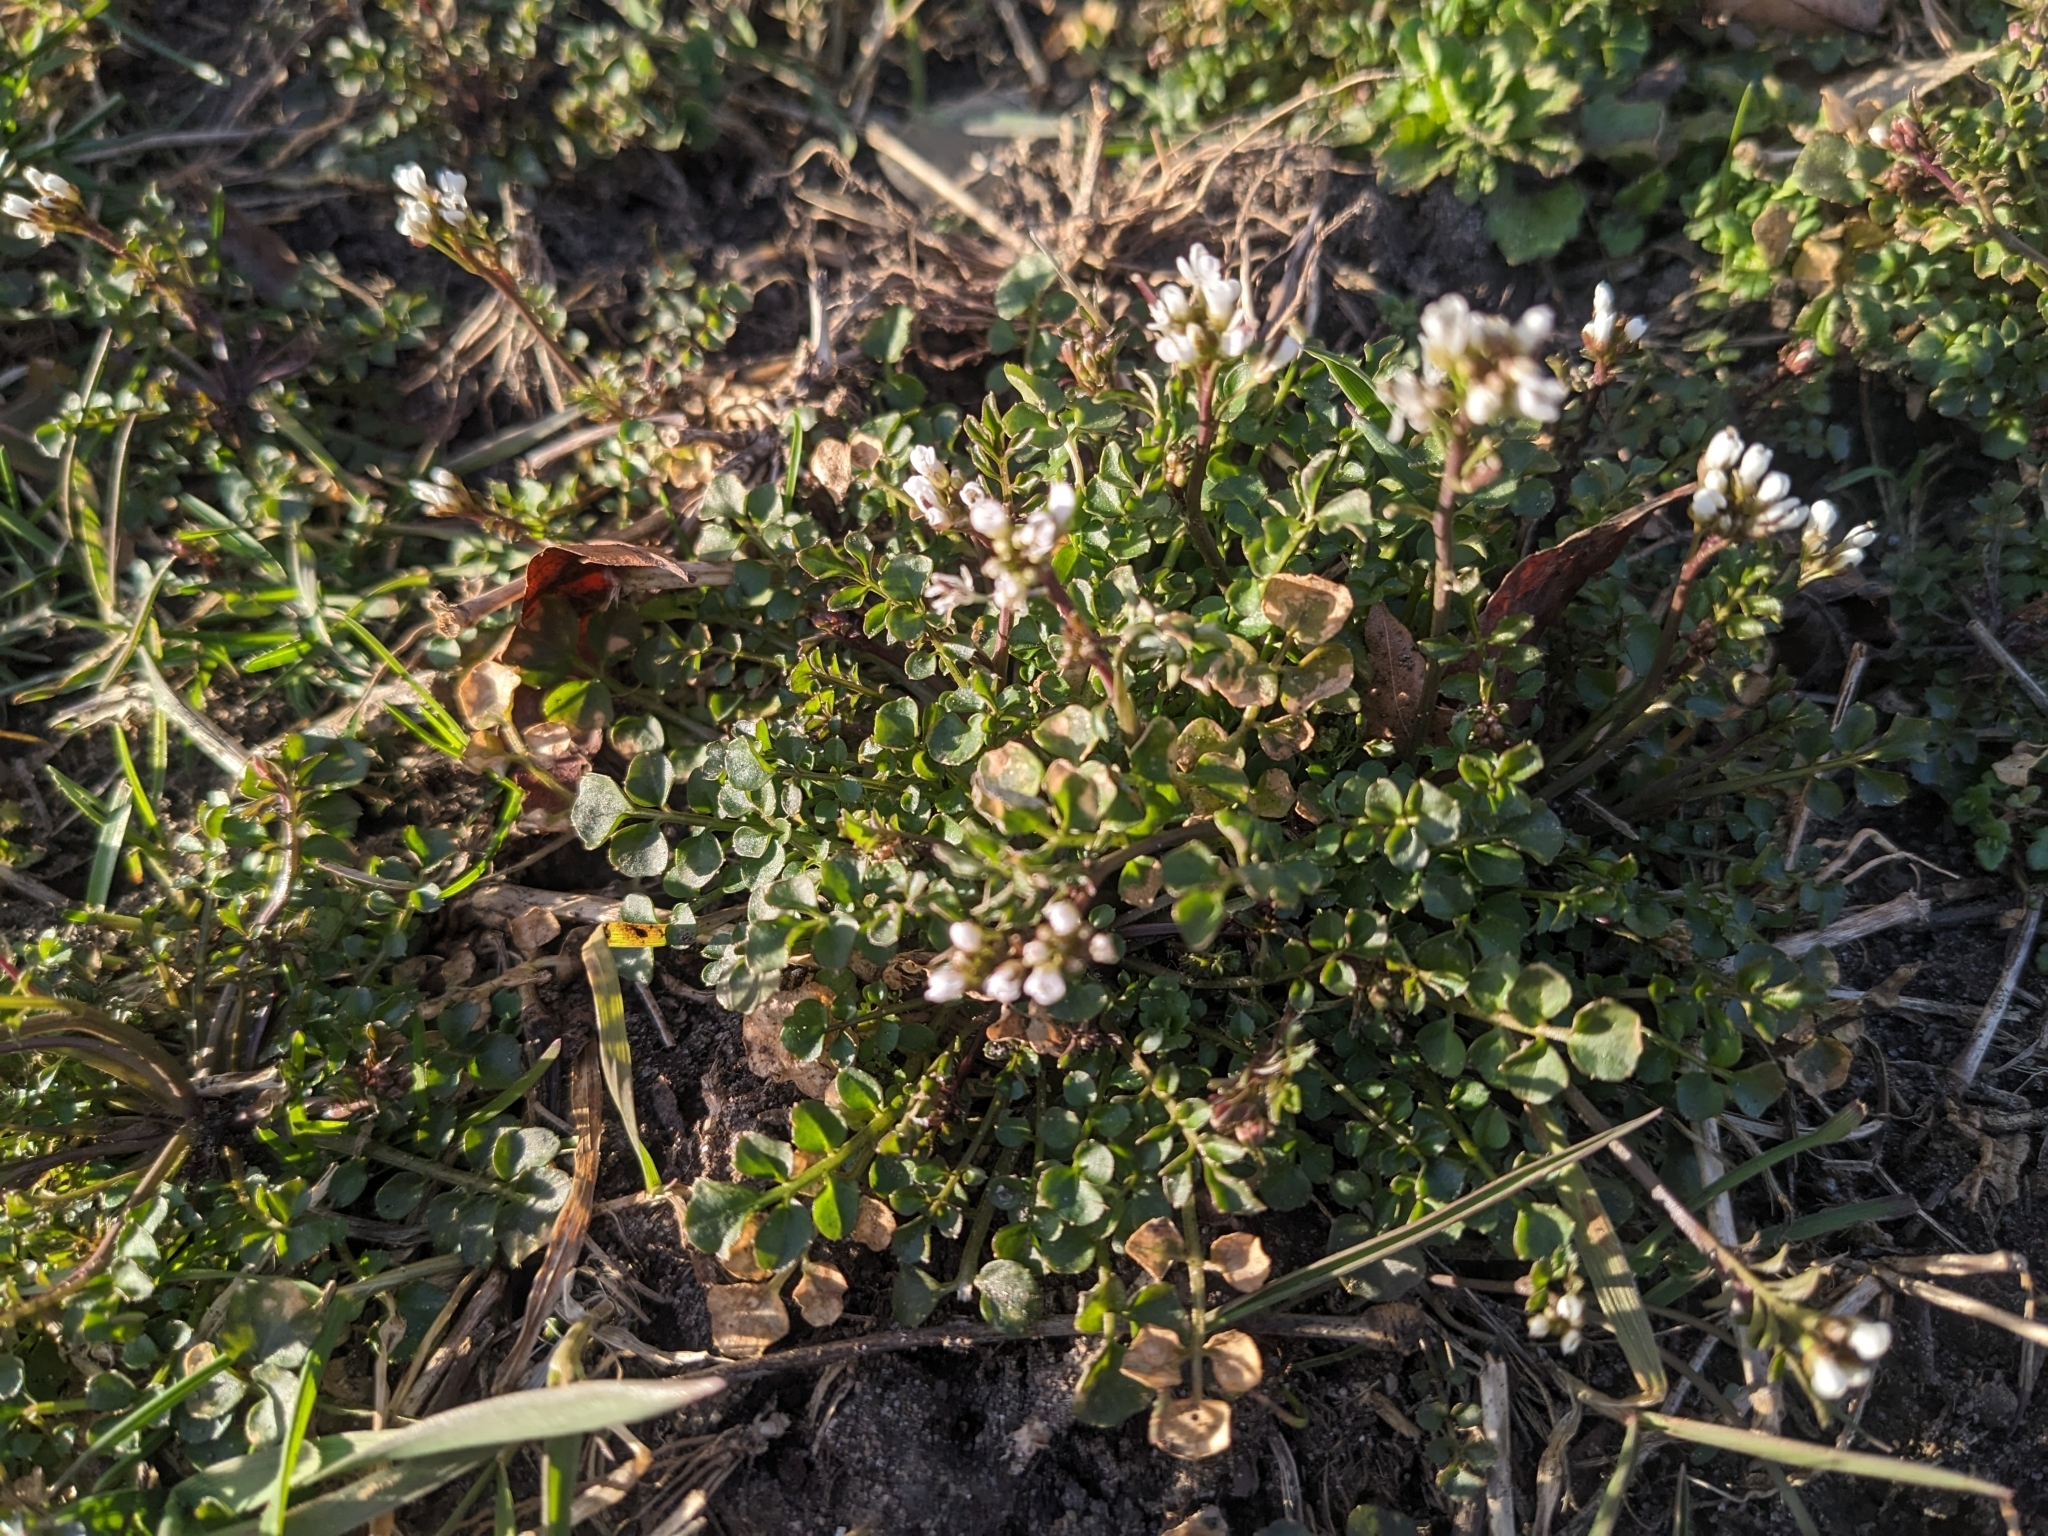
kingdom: Plantae
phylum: Tracheophyta
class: Magnoliopsida
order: Brassicales
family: Brassicaceae
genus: Cardamine
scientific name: Cardamine hirsuta
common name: Hairy bittercress
